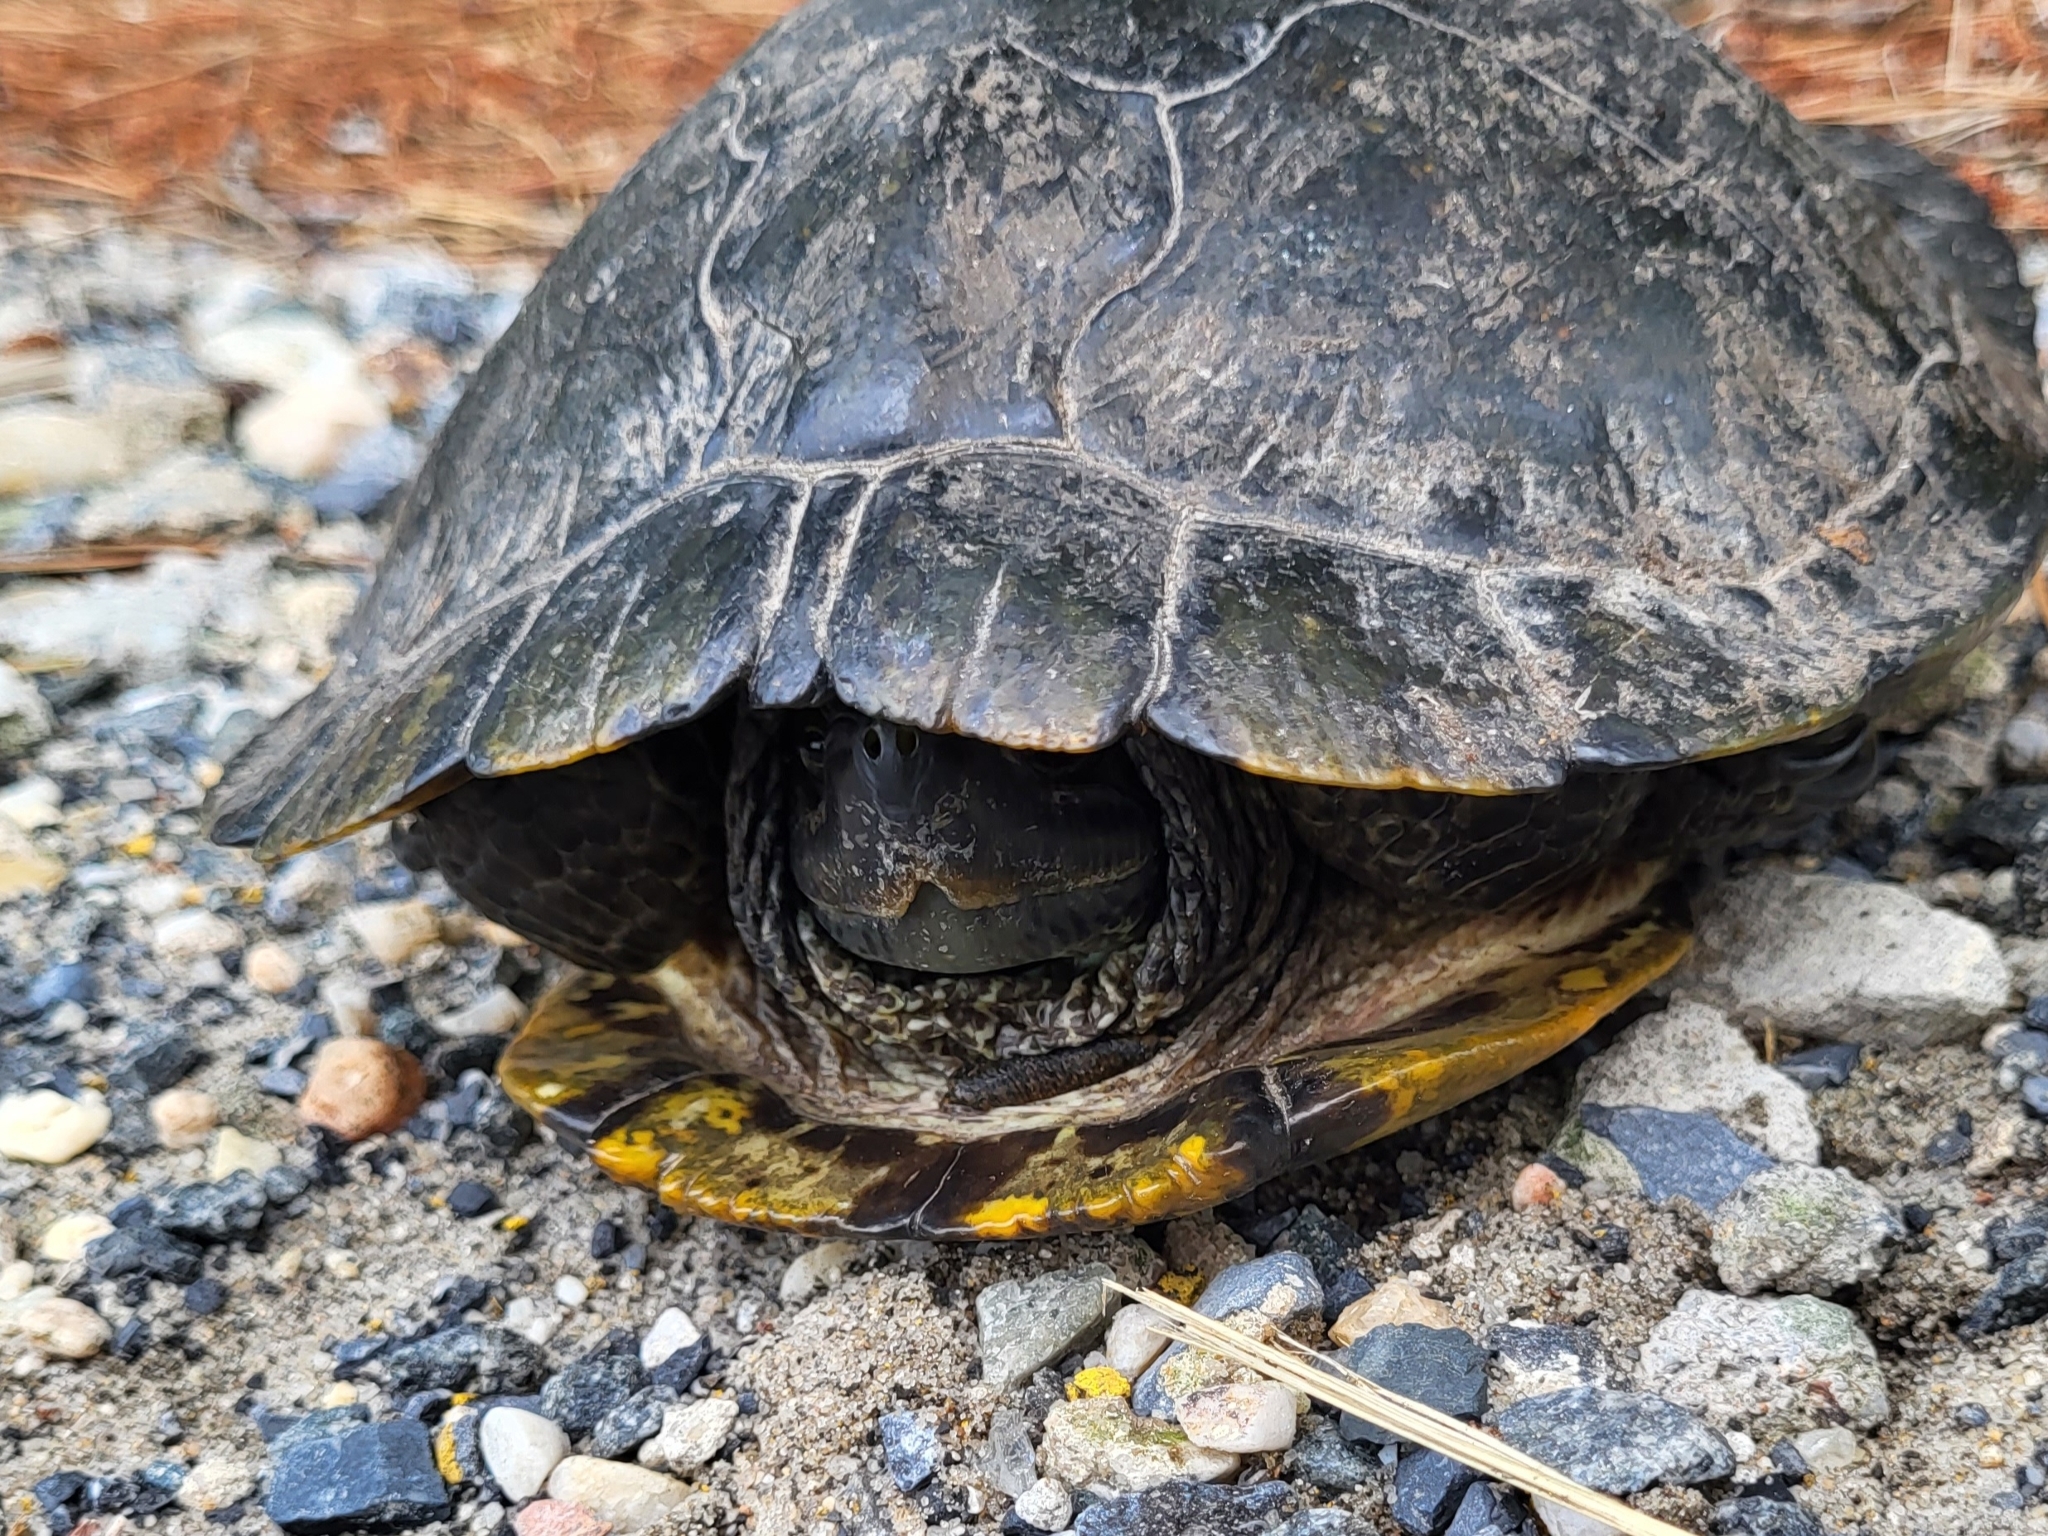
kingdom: Animalia
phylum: Chordata
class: Testudines
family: Emydidae
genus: Trachemys
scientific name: Trachemys scripta
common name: Slider
